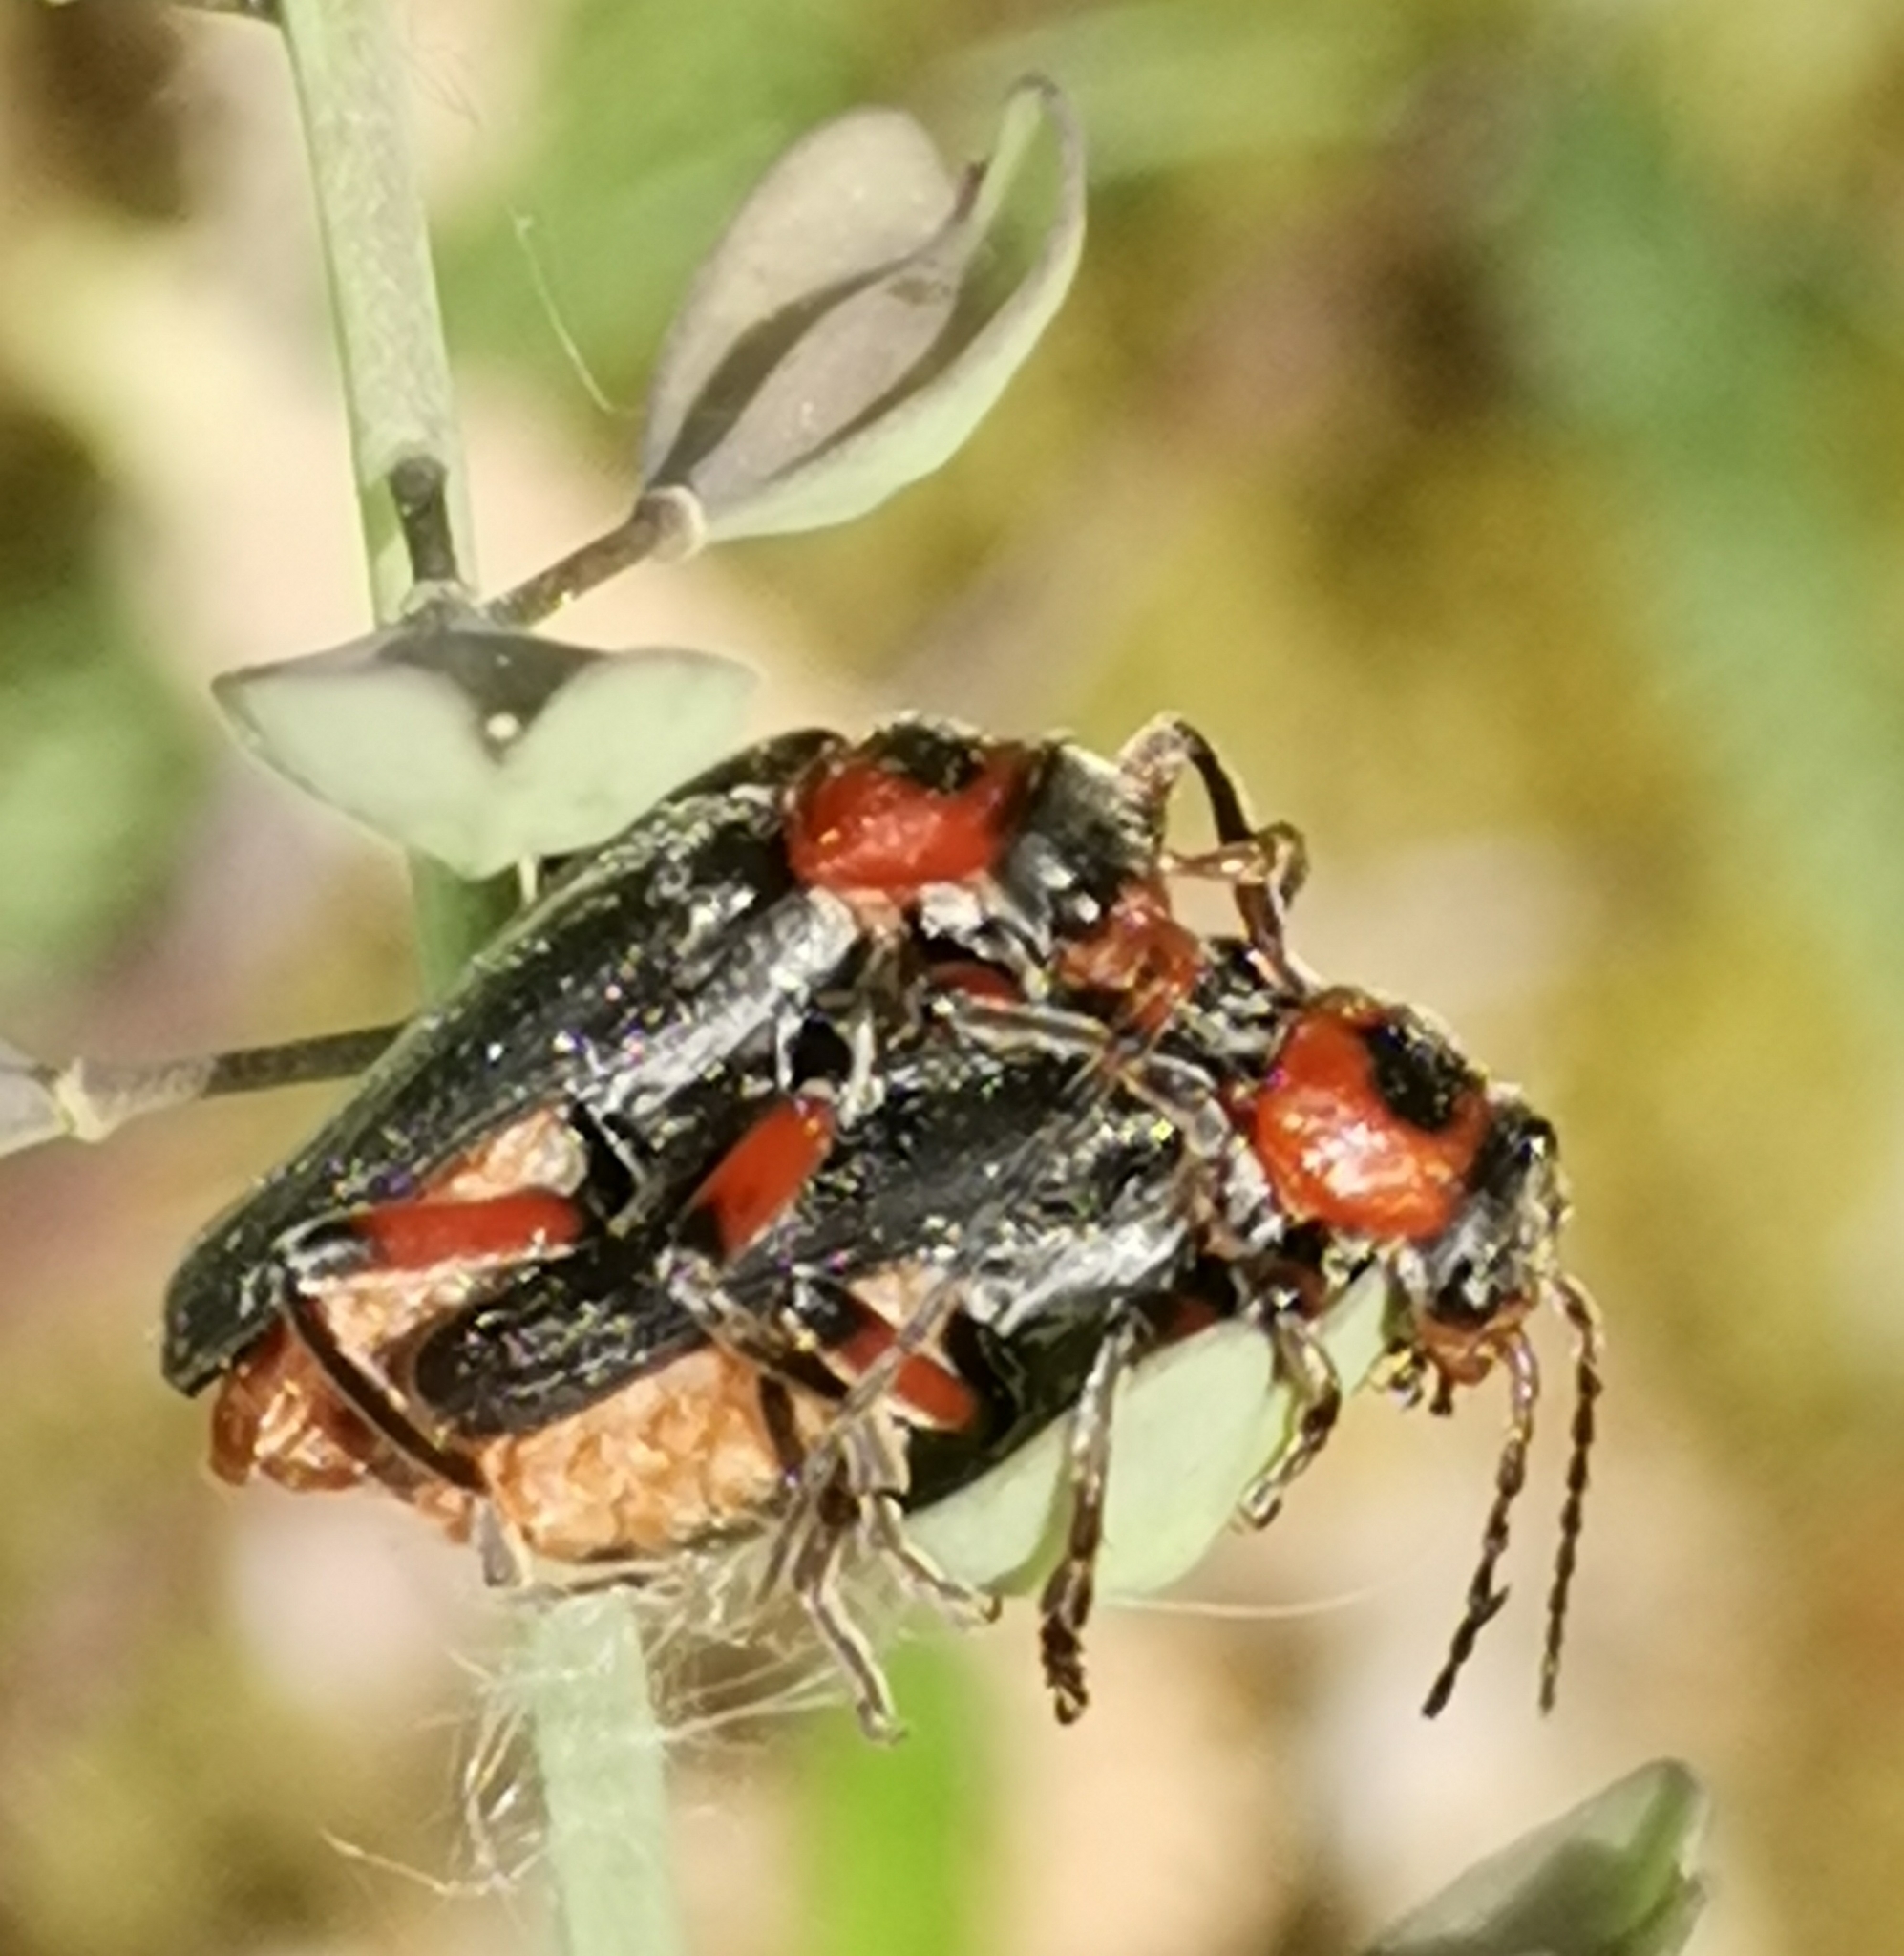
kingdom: Animalia
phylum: Arthropoda
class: Insecta
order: Coleoptera
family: Cantharidae
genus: Cantharis
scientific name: Cantharis rustica
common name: Soldier beetle
